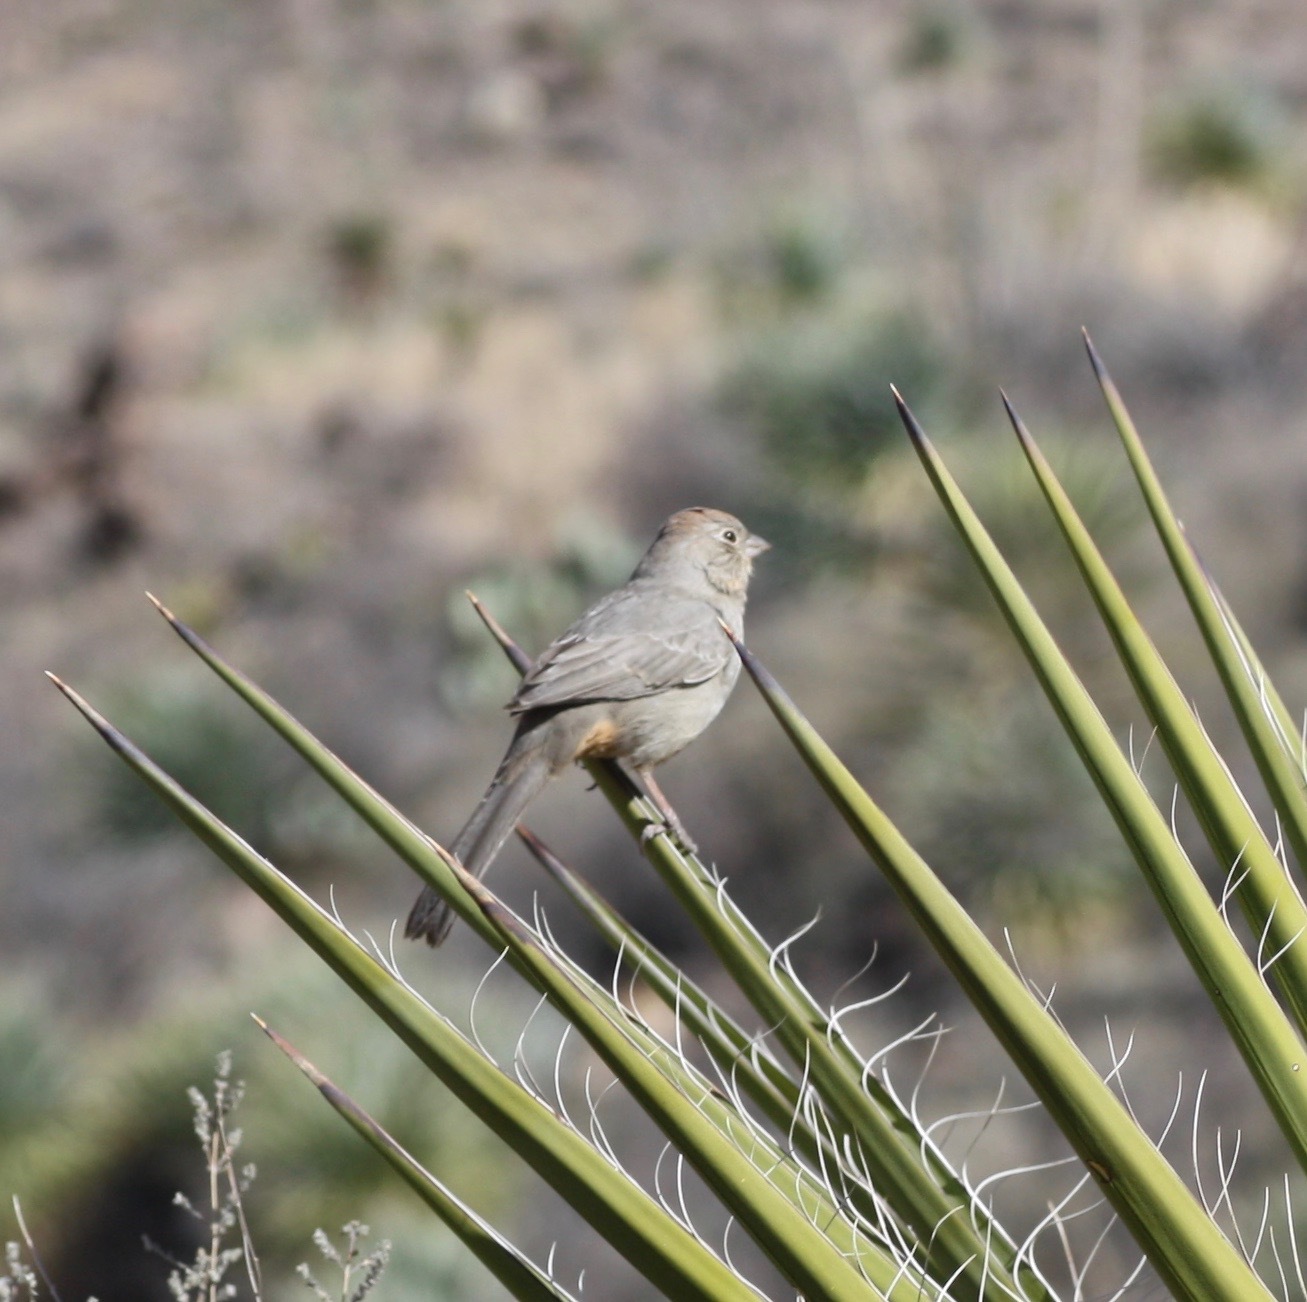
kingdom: Animalia
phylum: Chordata
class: Aves
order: Passeriformes
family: Passerellidae
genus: Melozone
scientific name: Melozone fusca
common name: Canyon towhee
